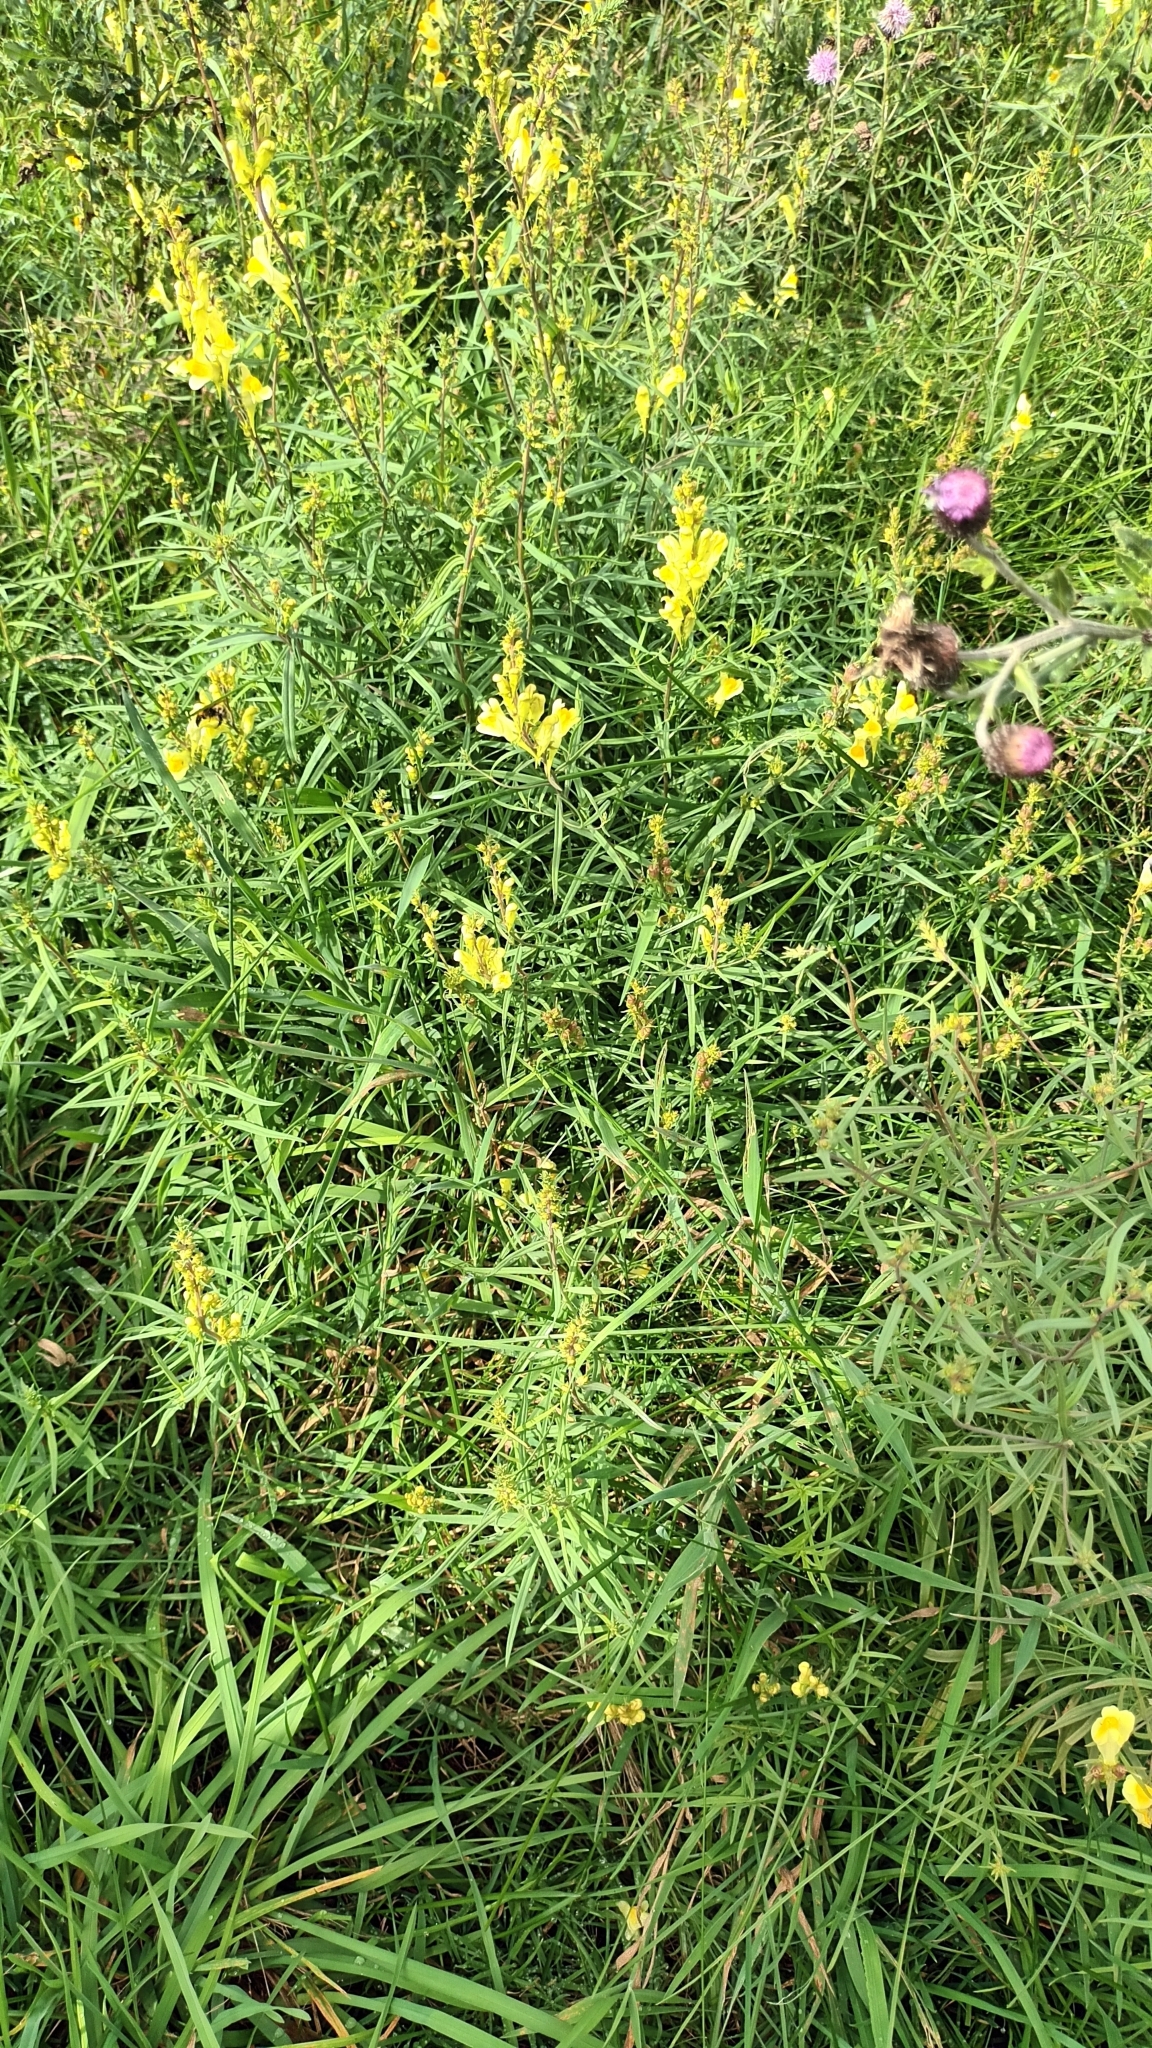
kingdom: Plantae
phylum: Tracheophyta
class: Magnoliopsida
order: Lamiales
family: Plantaginaceae
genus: Linaria
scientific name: Linaria vulgaris
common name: Butter and eggs
